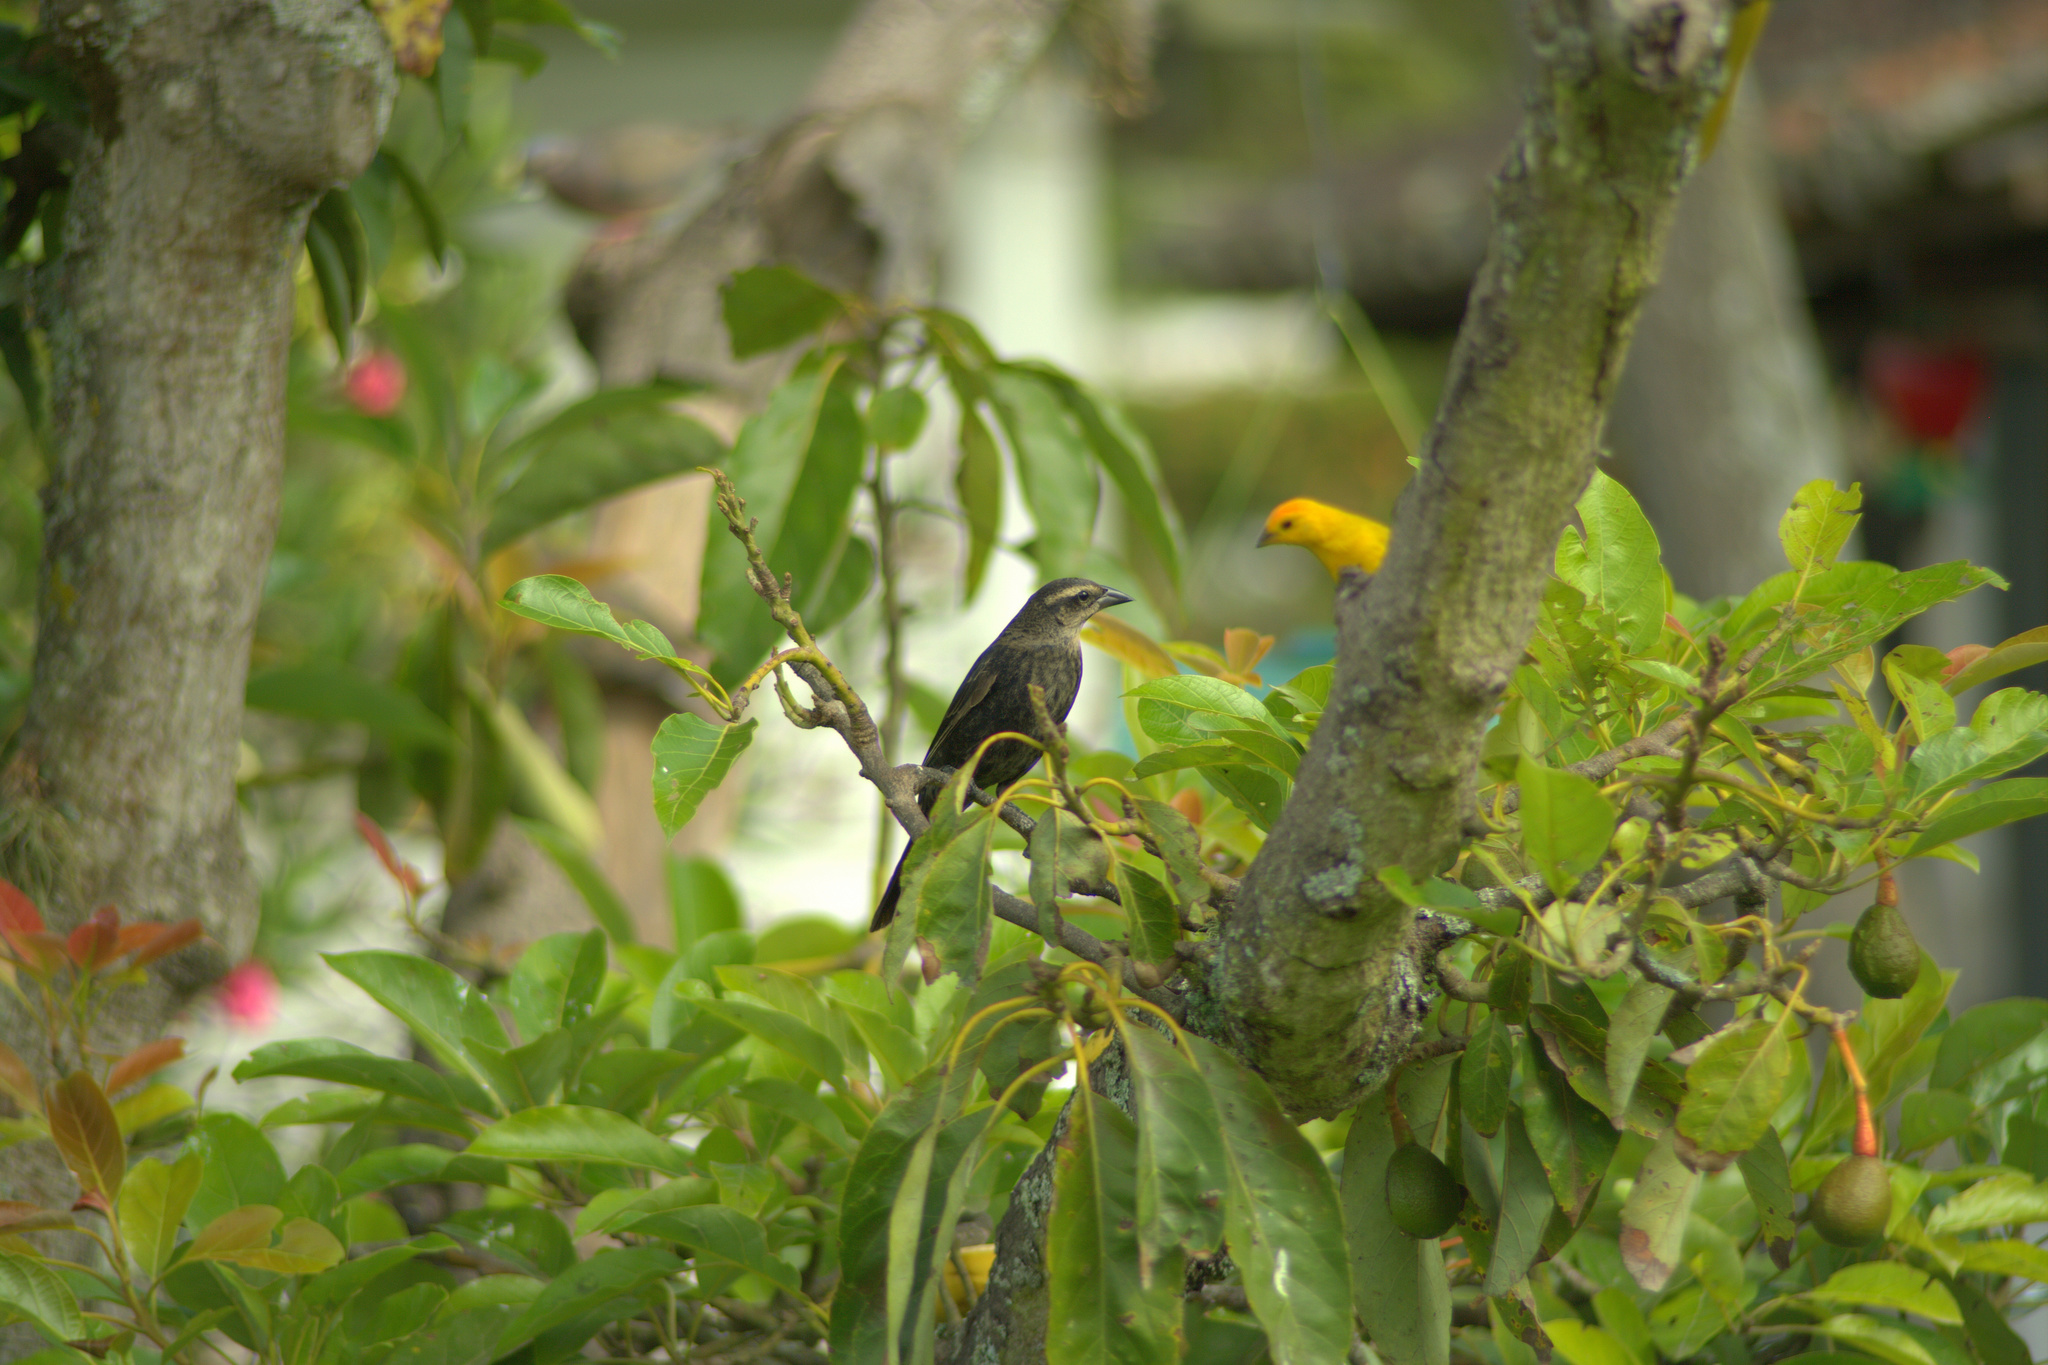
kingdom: Animalia
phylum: Chordata
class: Aves
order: Passeriformes
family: Icteridae
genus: Molothrus
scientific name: Molothrus bonariensis
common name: Shiny cowbird
